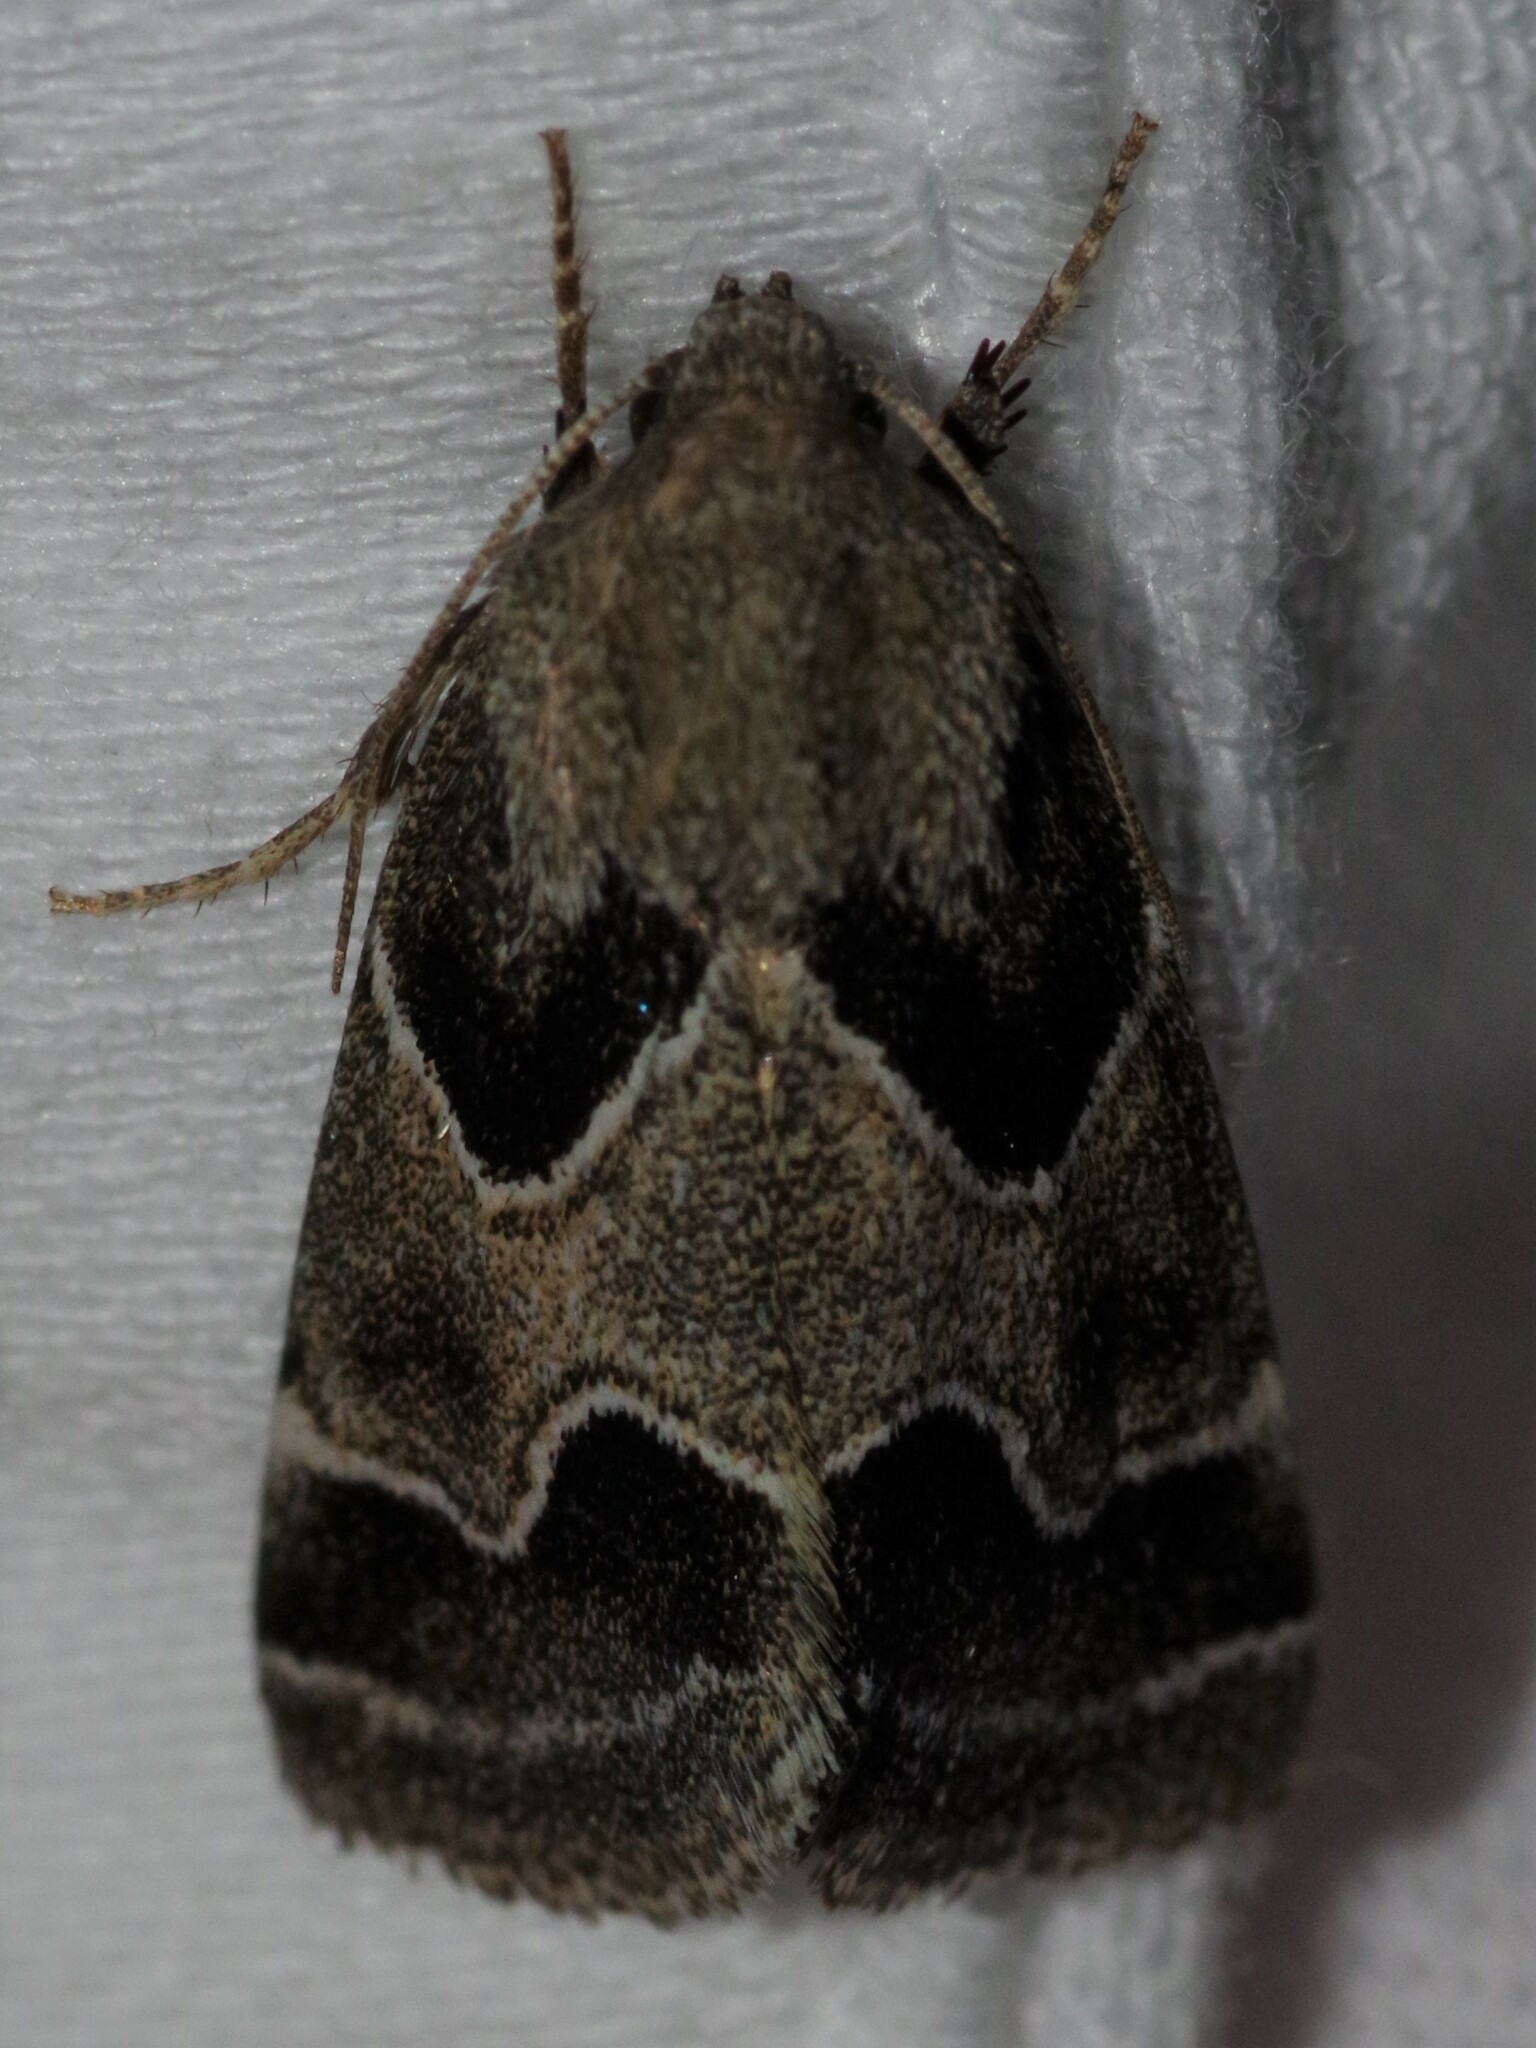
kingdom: Animalia
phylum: Arthropoda
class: Insecta
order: Lepidoptera
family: Noctuidae
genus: Schinia
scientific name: Schinia rivulosa
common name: Scarce meal-moth
